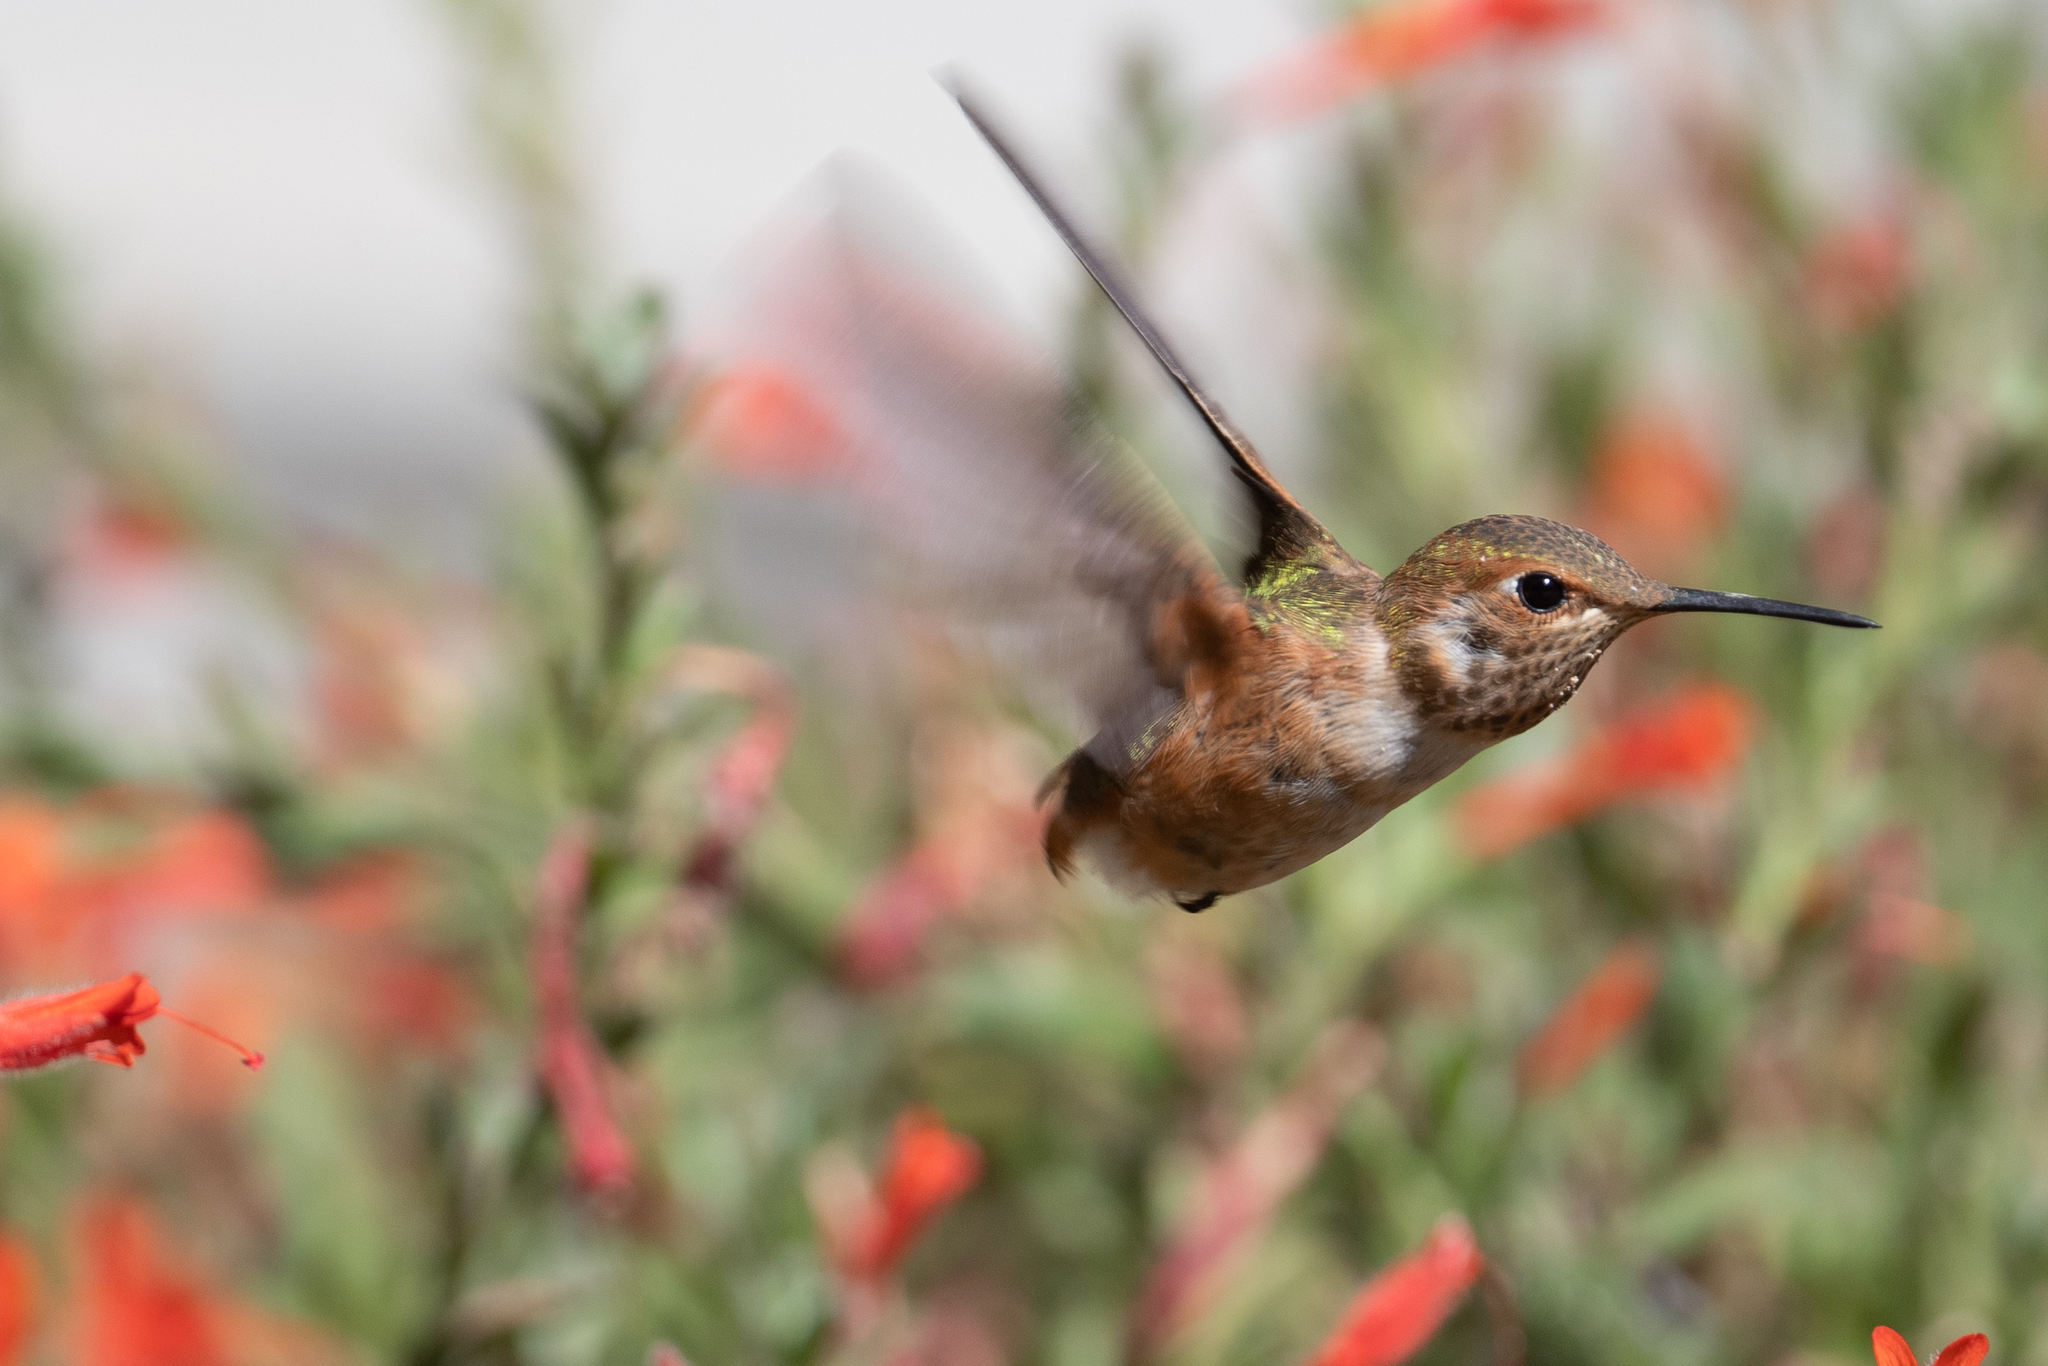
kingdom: Animalia
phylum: Chordata
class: Aves
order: Apodiformes
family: Trochilidae
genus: Selasphorus
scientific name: Selasphorus rufus
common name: Rufous hummingbird
